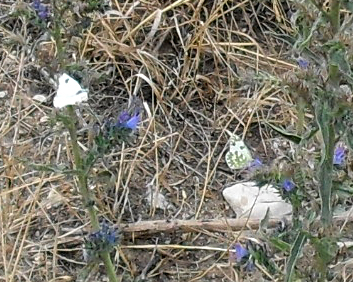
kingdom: Animalia
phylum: Arthropoda
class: Insecta
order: Lepidoptera
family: Pieridae
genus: Pontia
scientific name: Pontia edusa
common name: Eastern bath white
